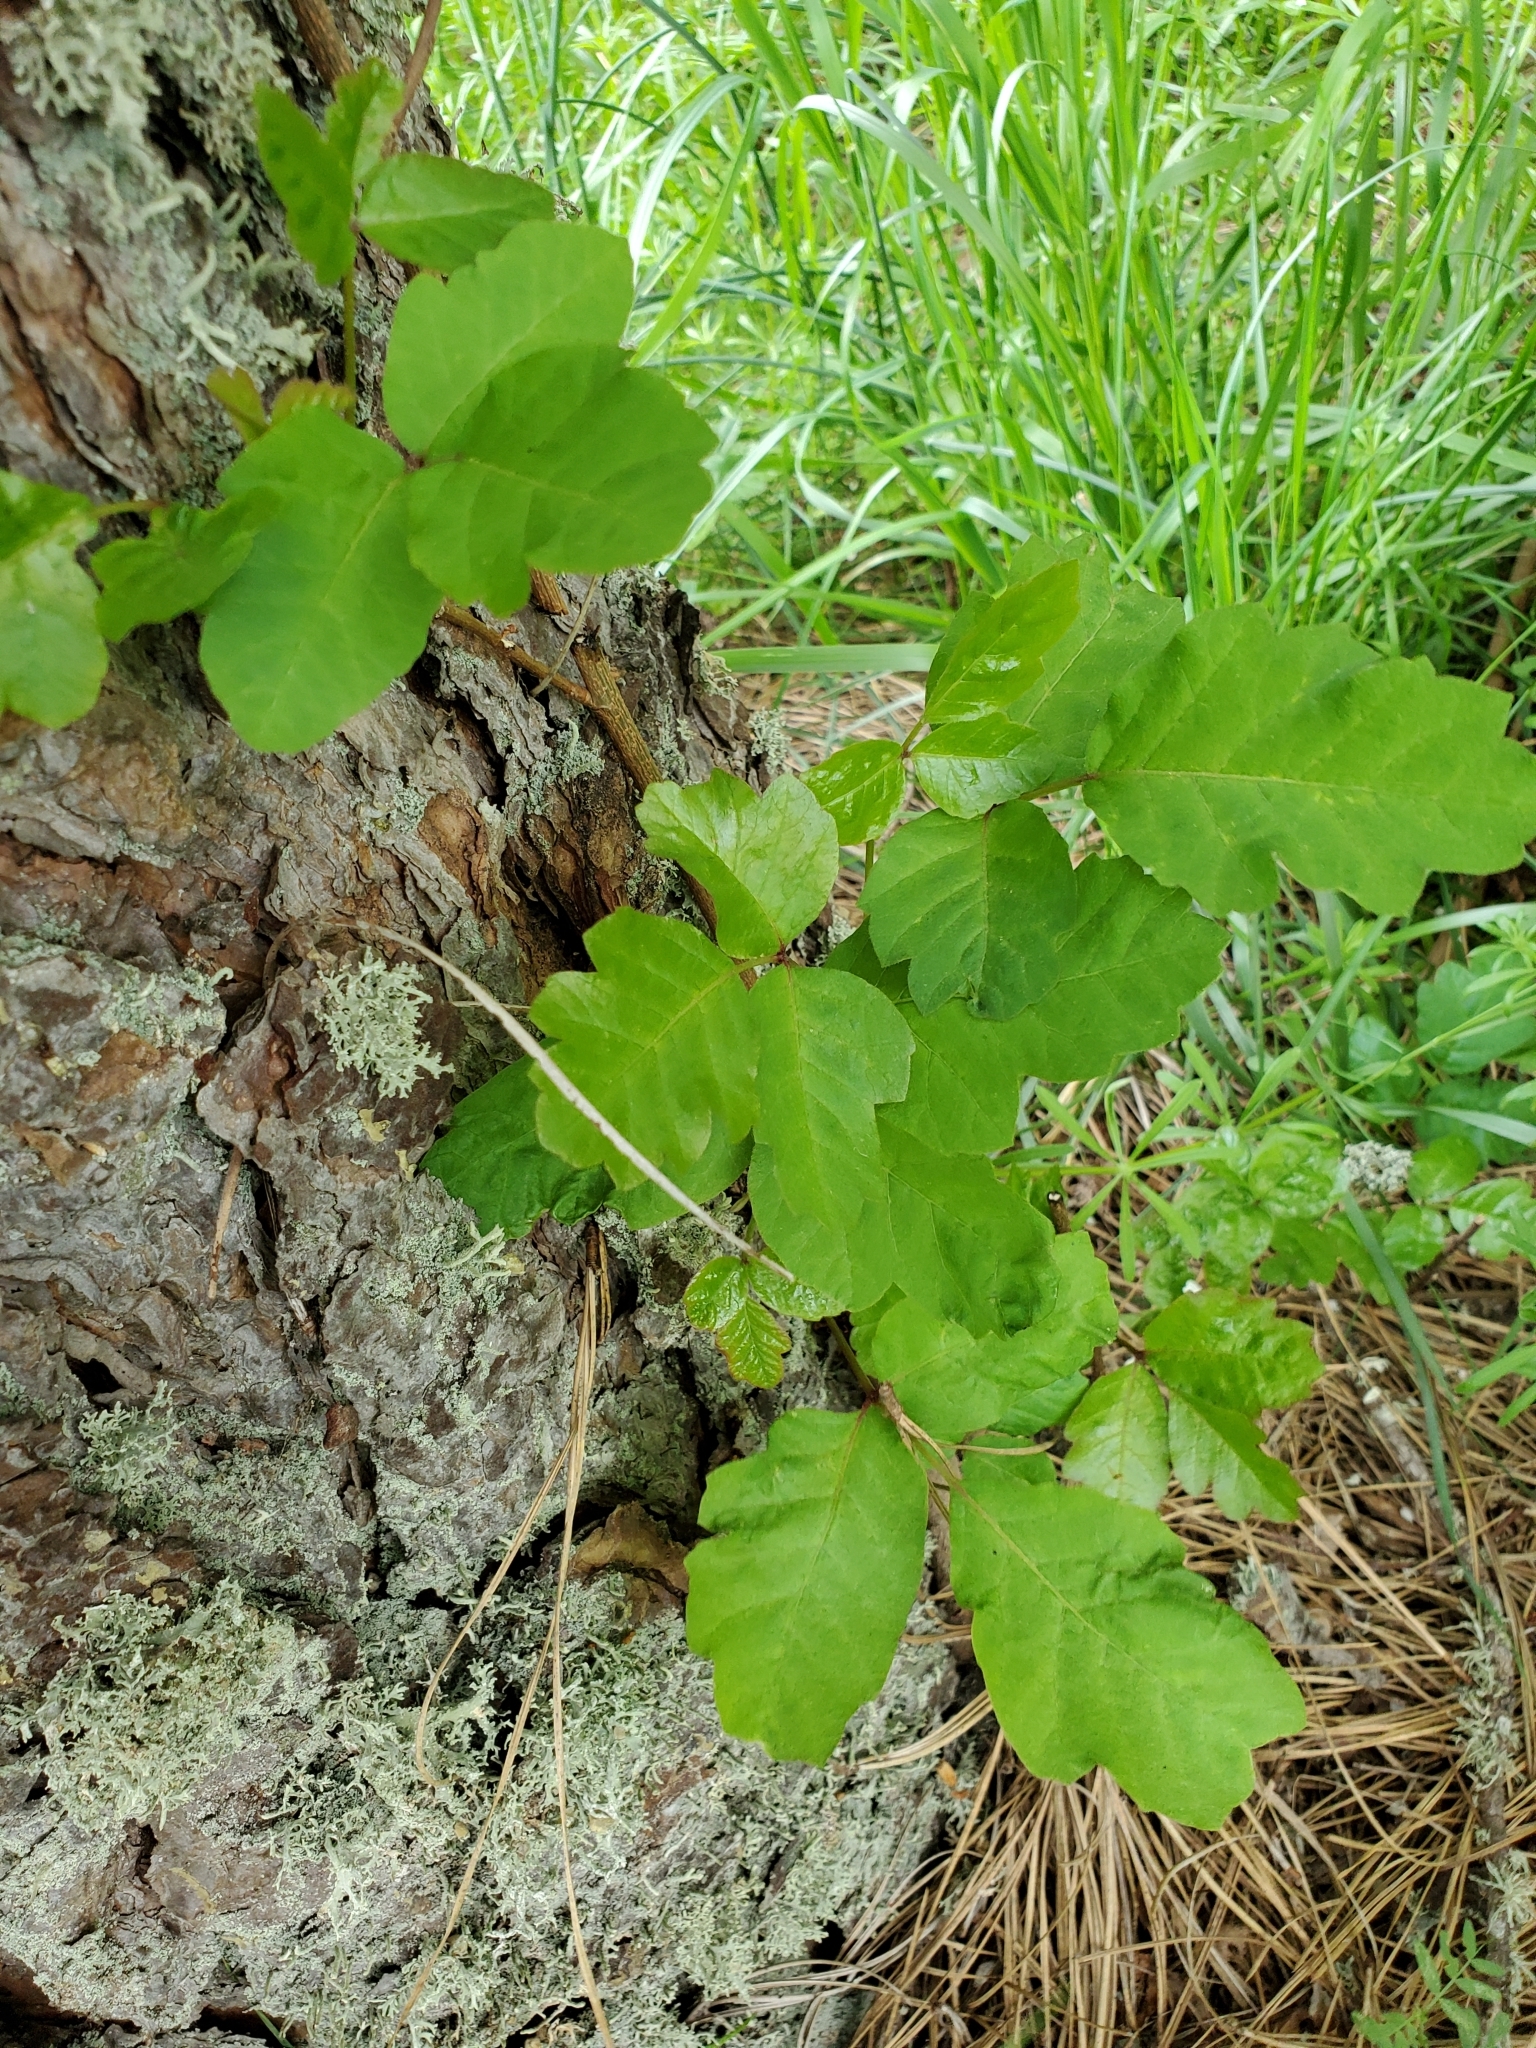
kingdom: Plantae
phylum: Tracheophyta
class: Magnoliopsida
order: Sapindales
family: Anacardiaceae
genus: Toxicodendron
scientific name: Toxicodendron diversilobum
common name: Pacific poison-oak
